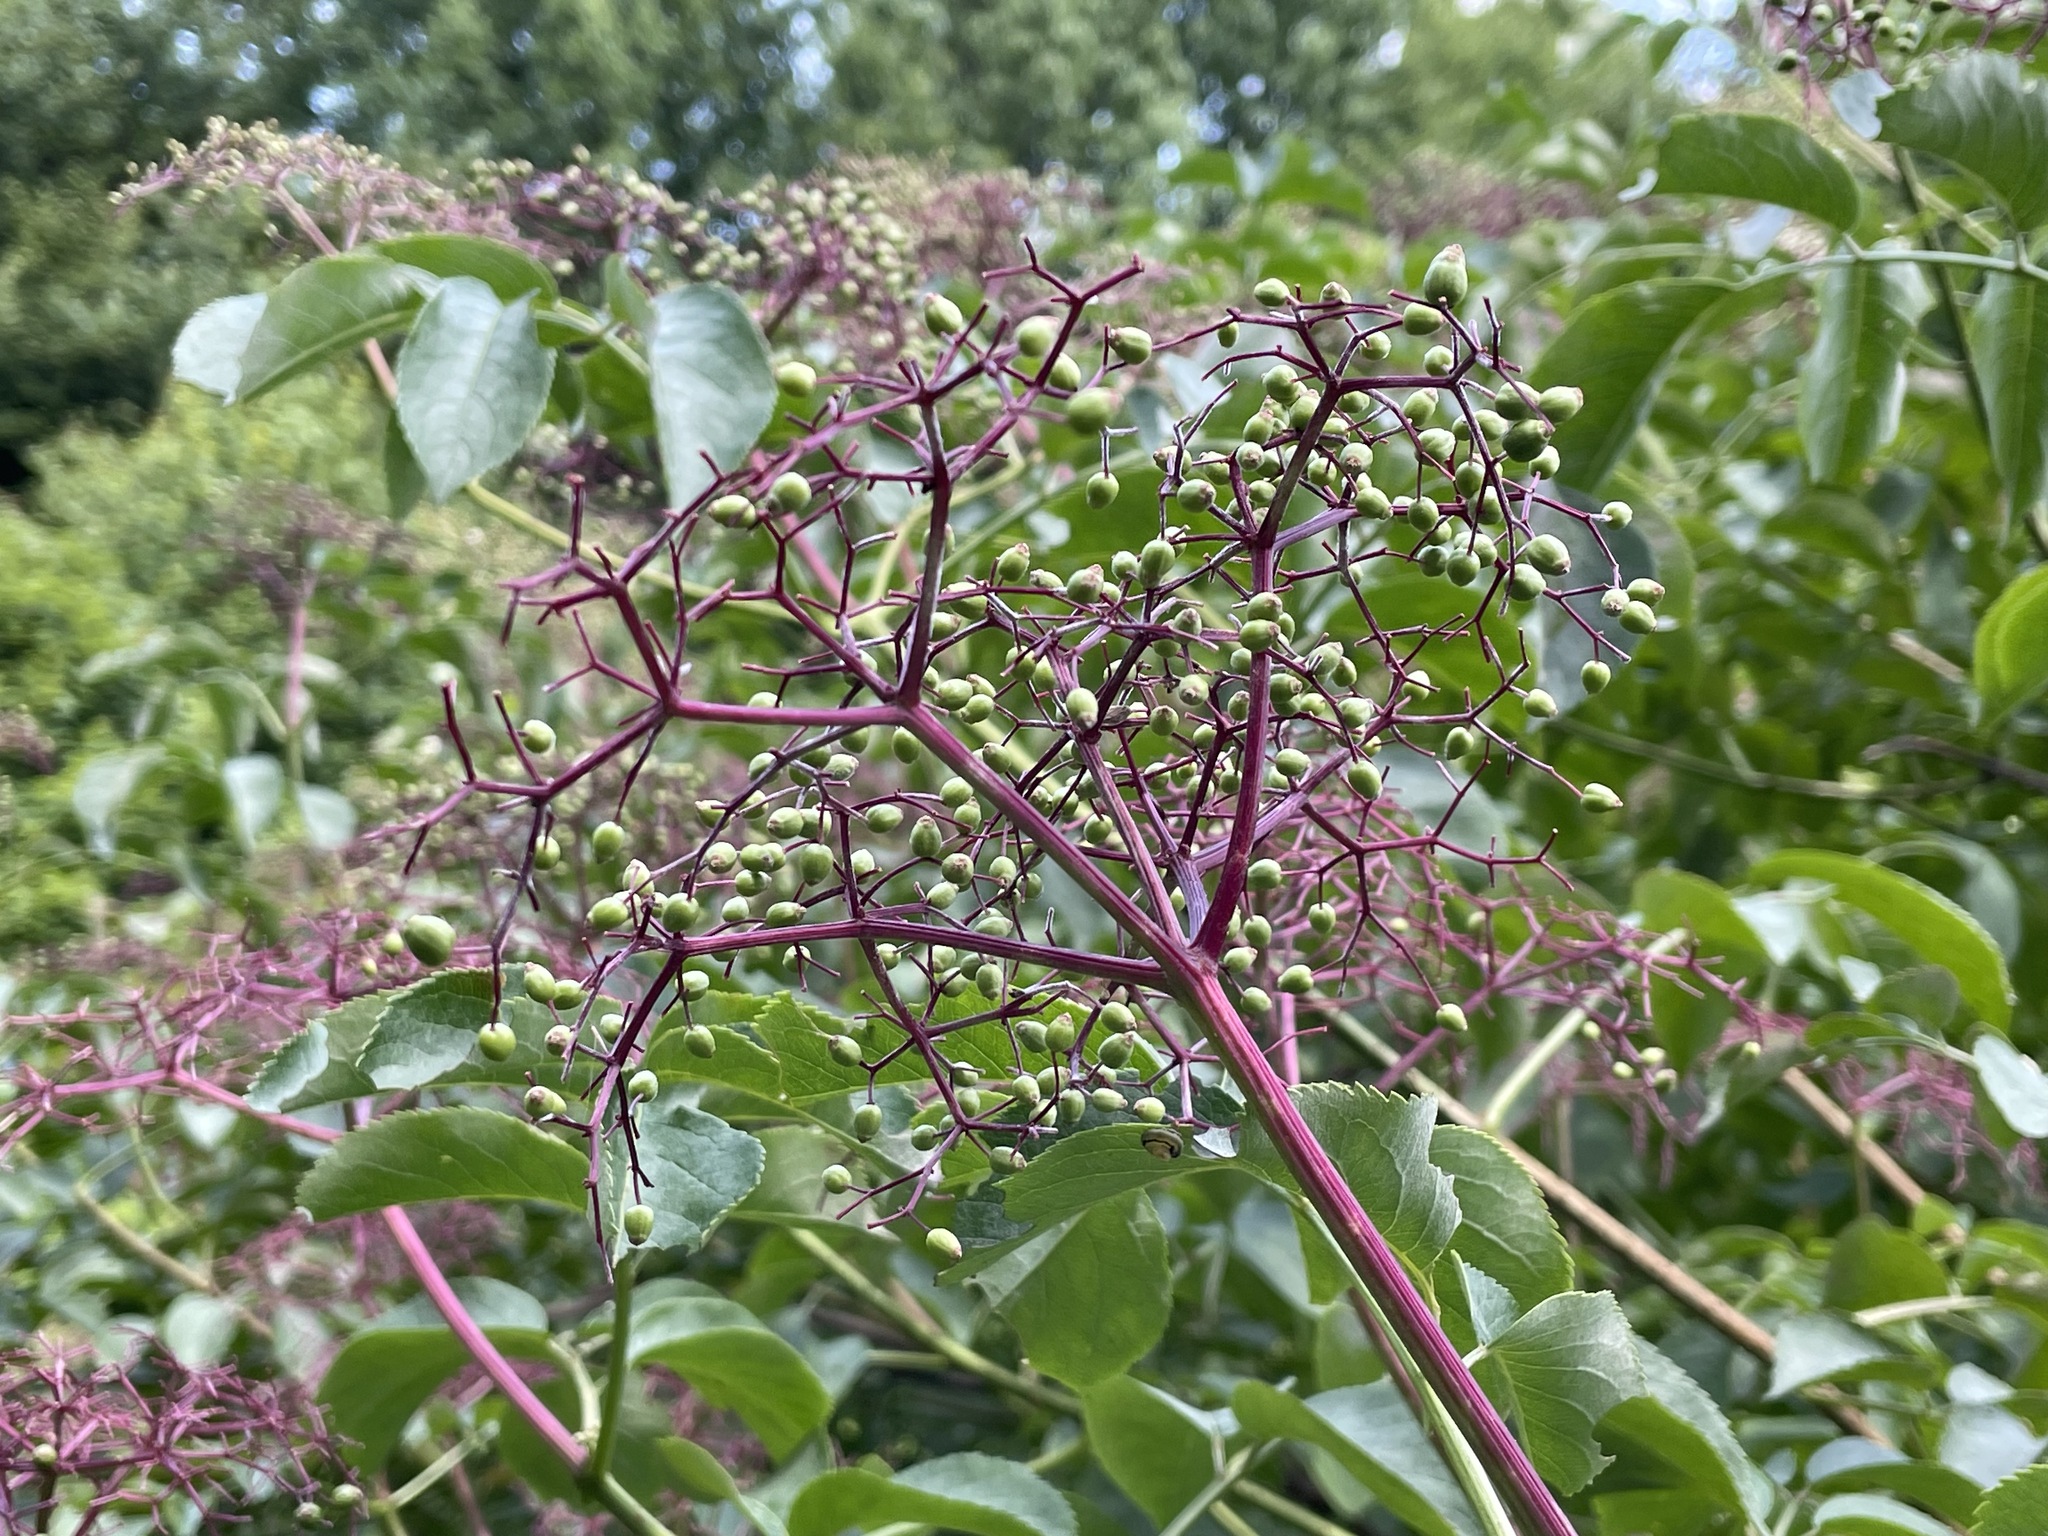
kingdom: Plantae
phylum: Tracheophyta
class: Magnoliopsida
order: Dipsacales
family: Viburnaceae
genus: Sambucus
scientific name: Sambucus canadensis
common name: American elder
